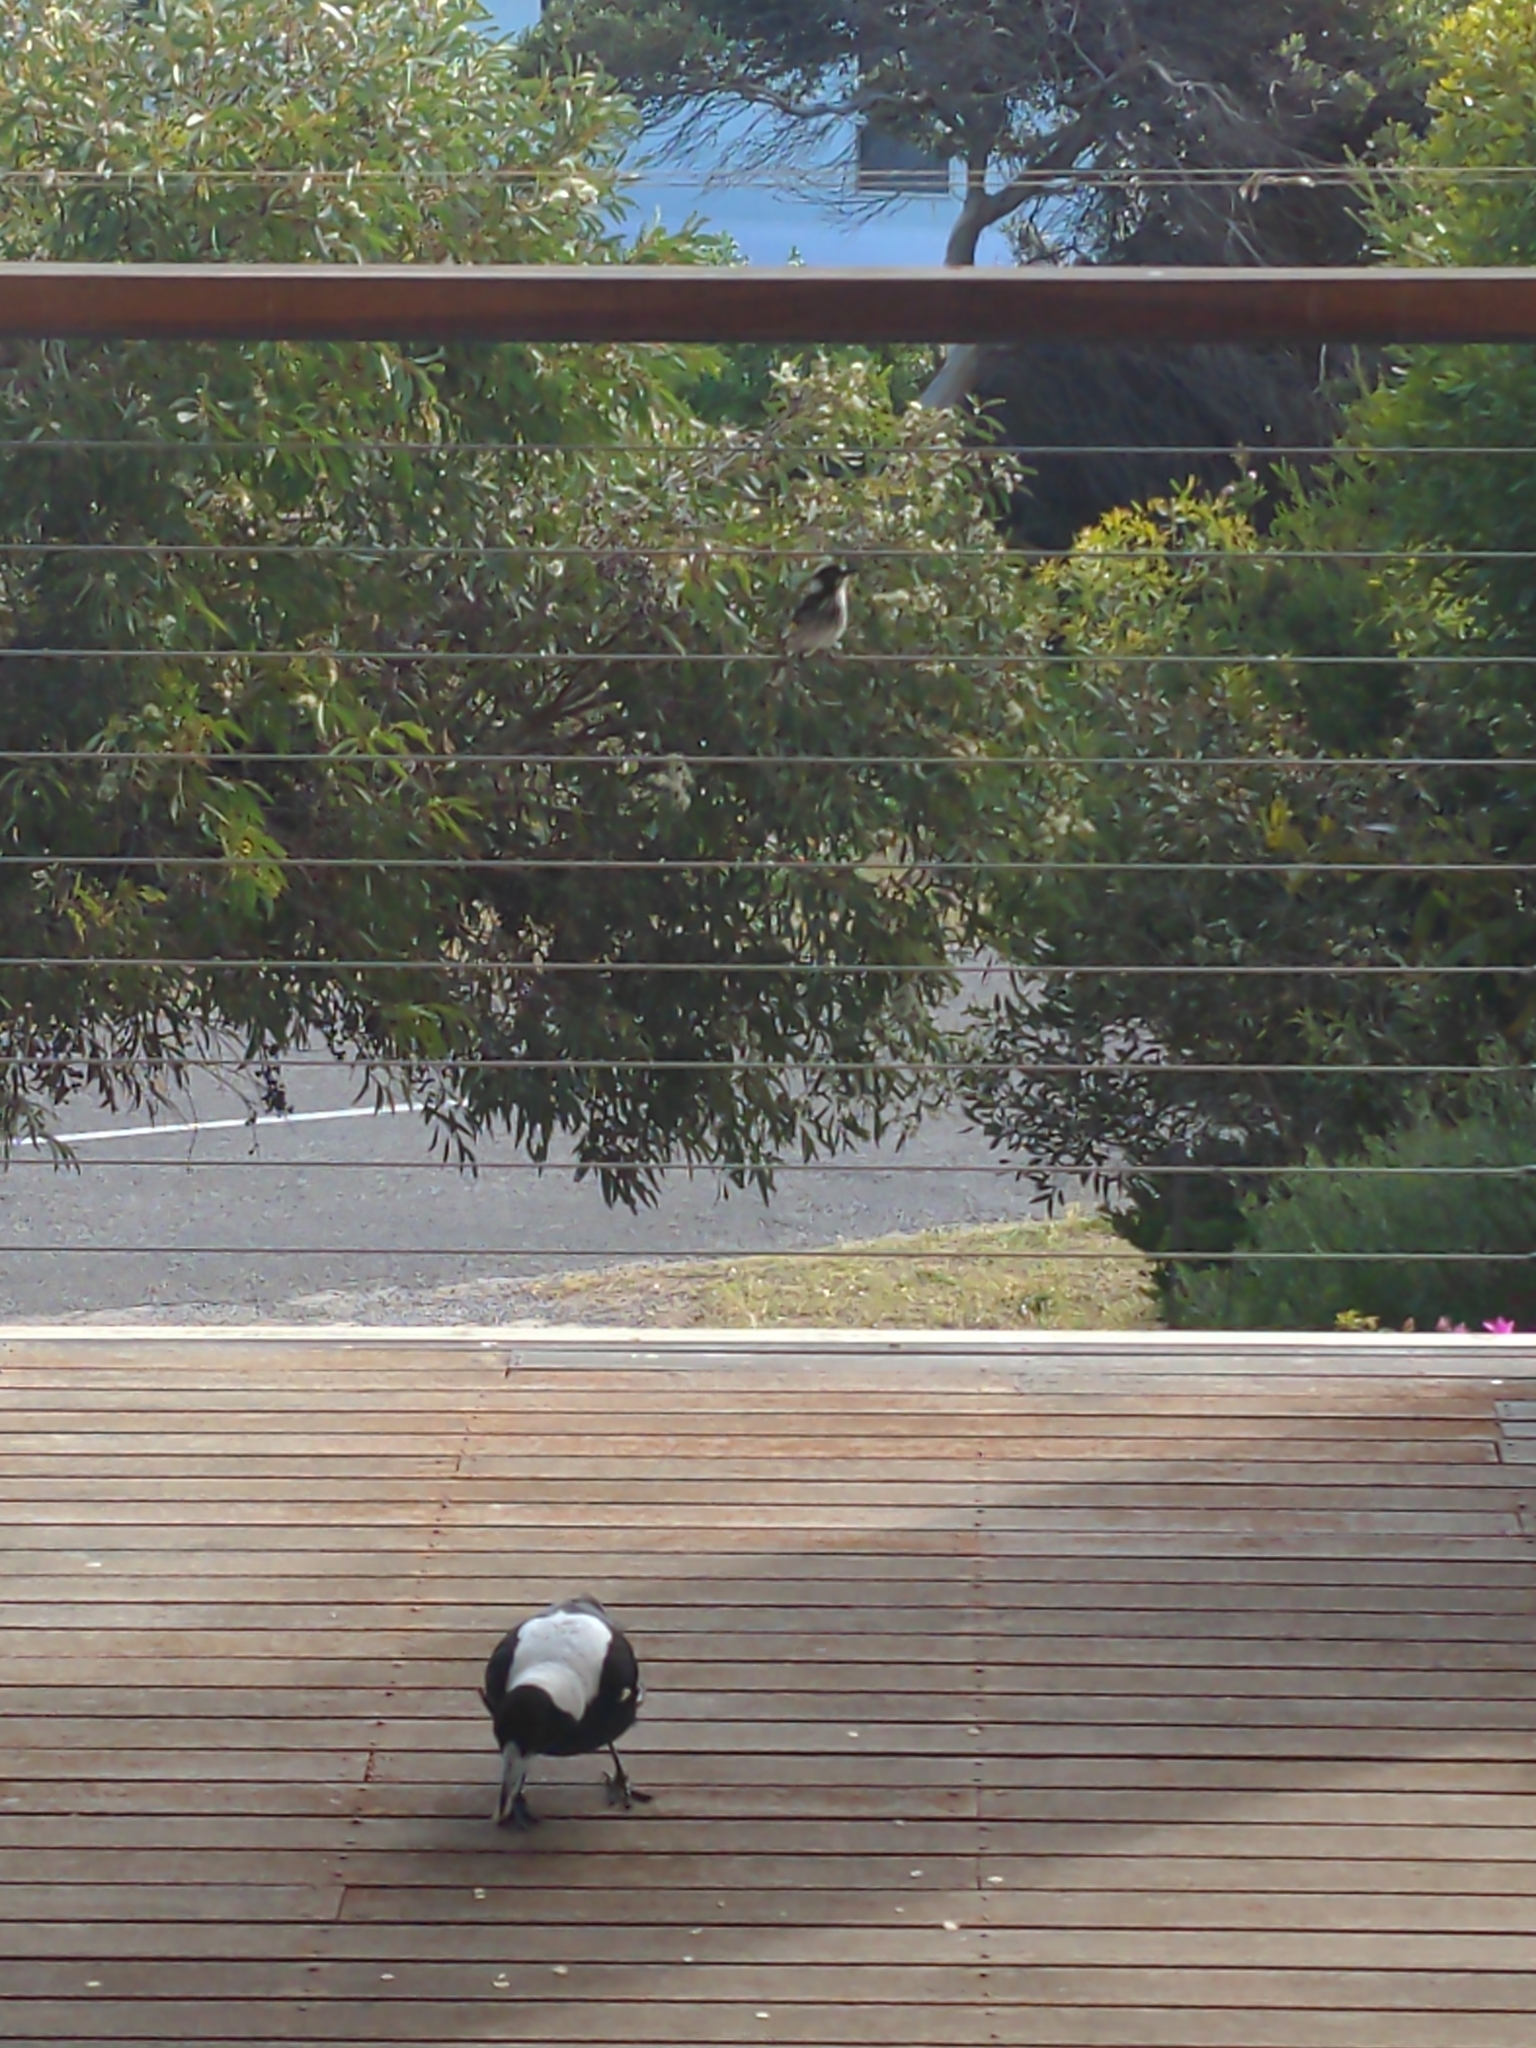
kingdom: Animalia
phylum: Chordata
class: Aves
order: Passeriformes
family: Meliphagidae
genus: Phylidonyris
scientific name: Phylidonyris novaehollandiae
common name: New holland honeyeater
